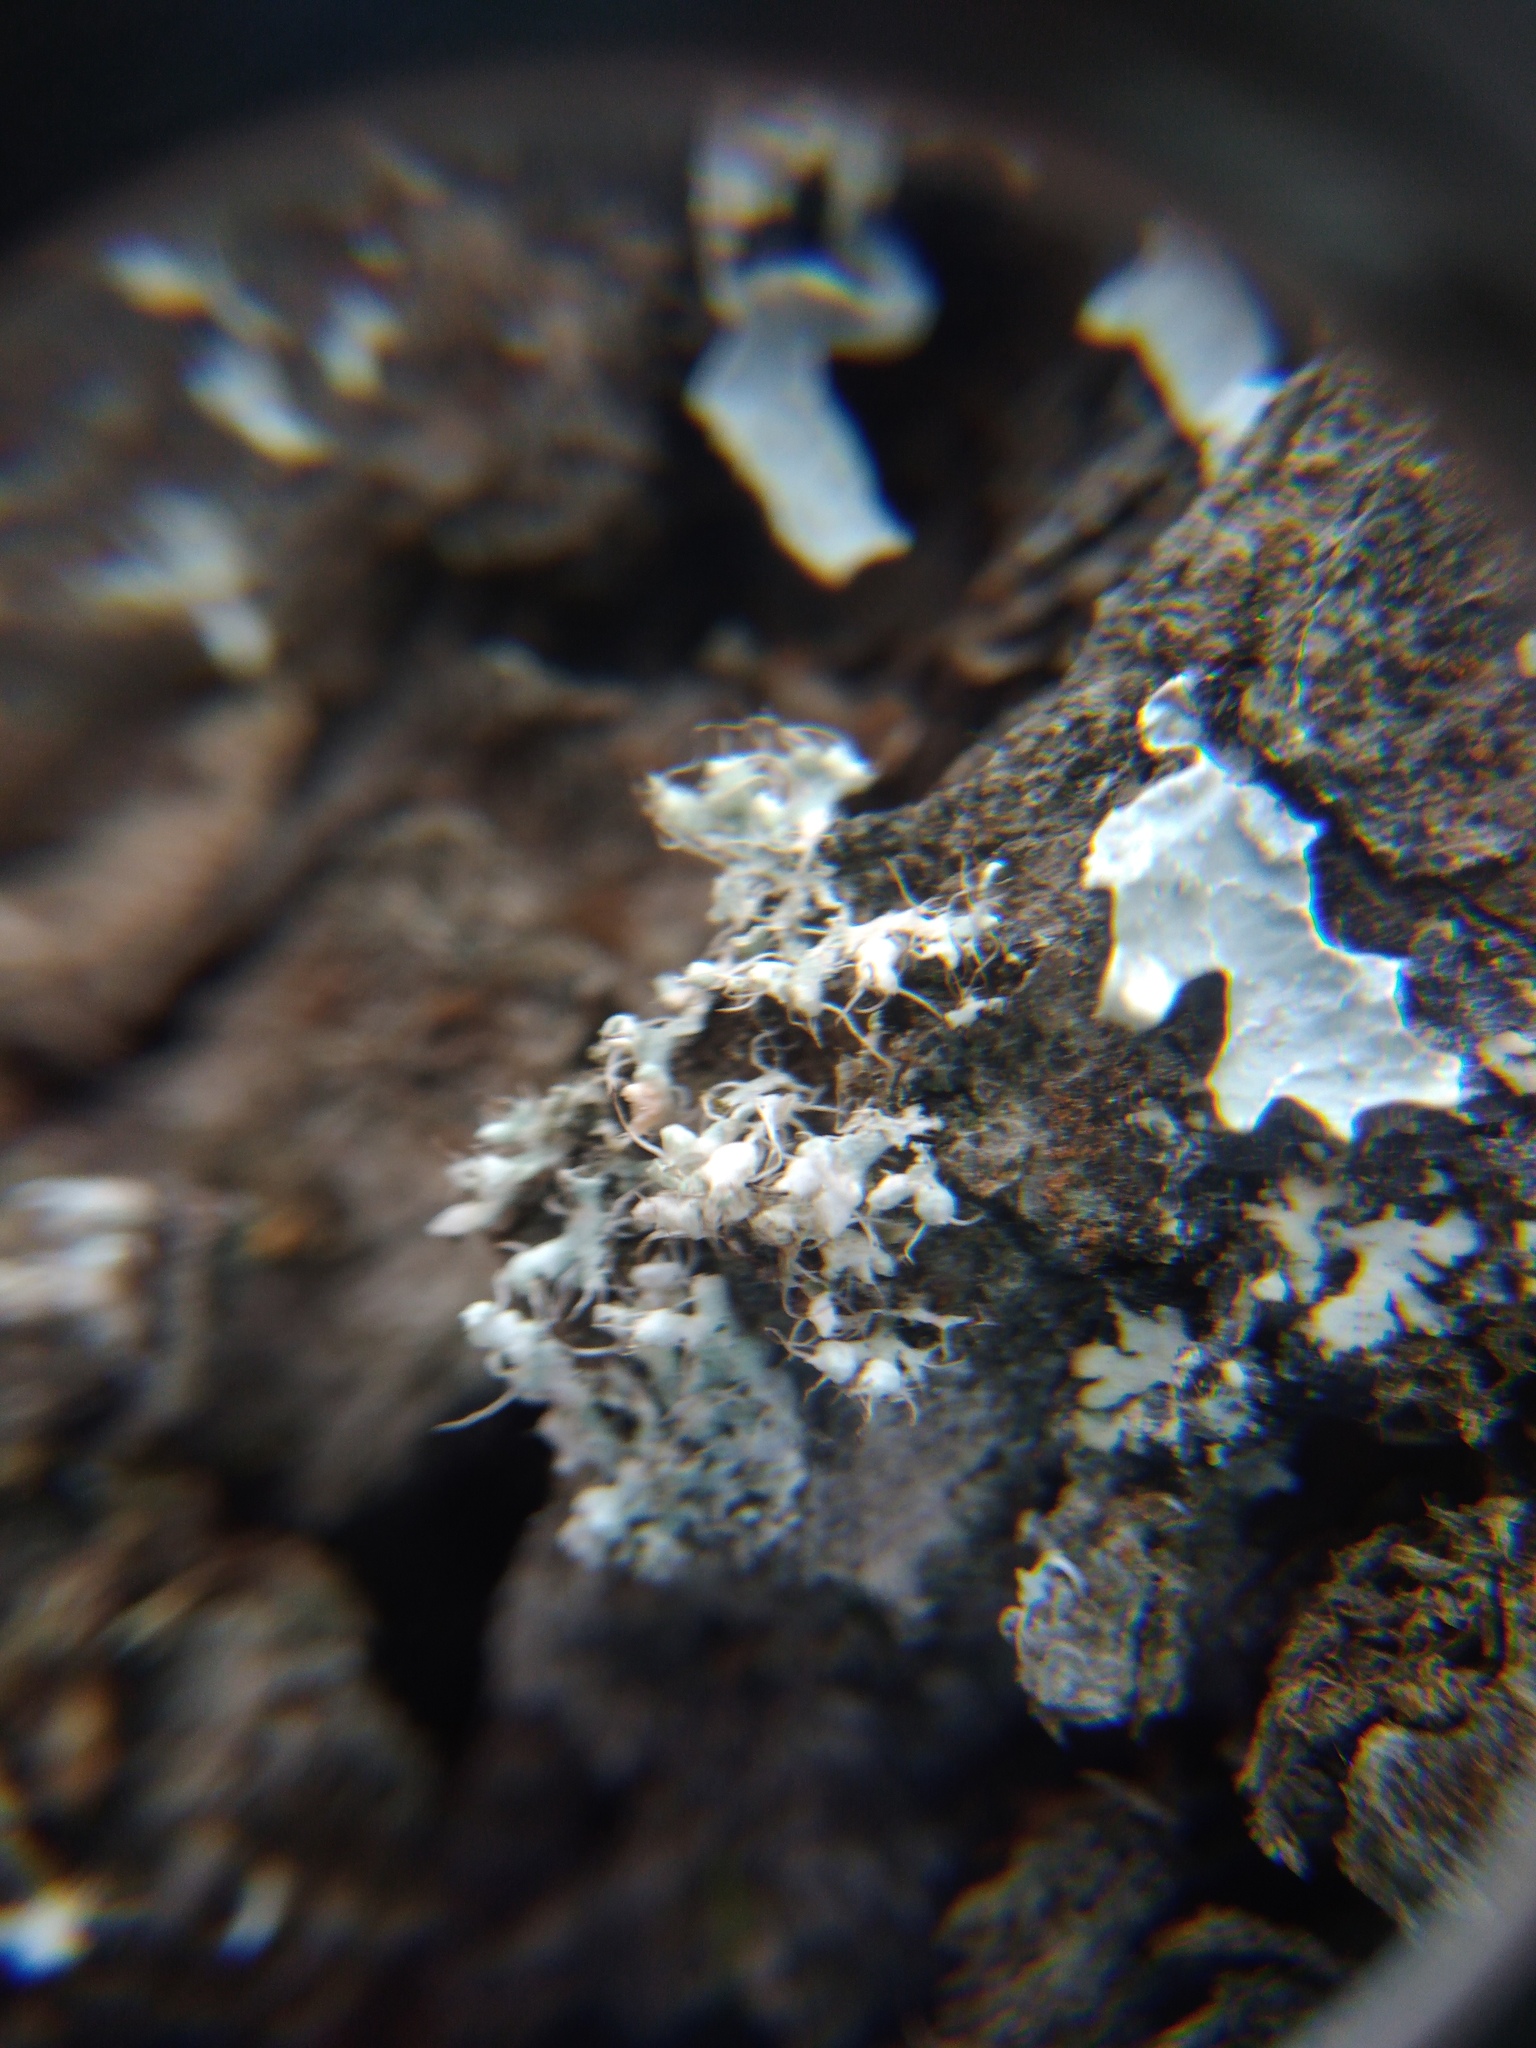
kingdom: Fungi
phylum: Ascomycota
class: Lecanoromycetes
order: Caliciales
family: Physciaceae
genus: Physcia
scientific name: Physcia adscendens
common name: Hooded rosette lichen
